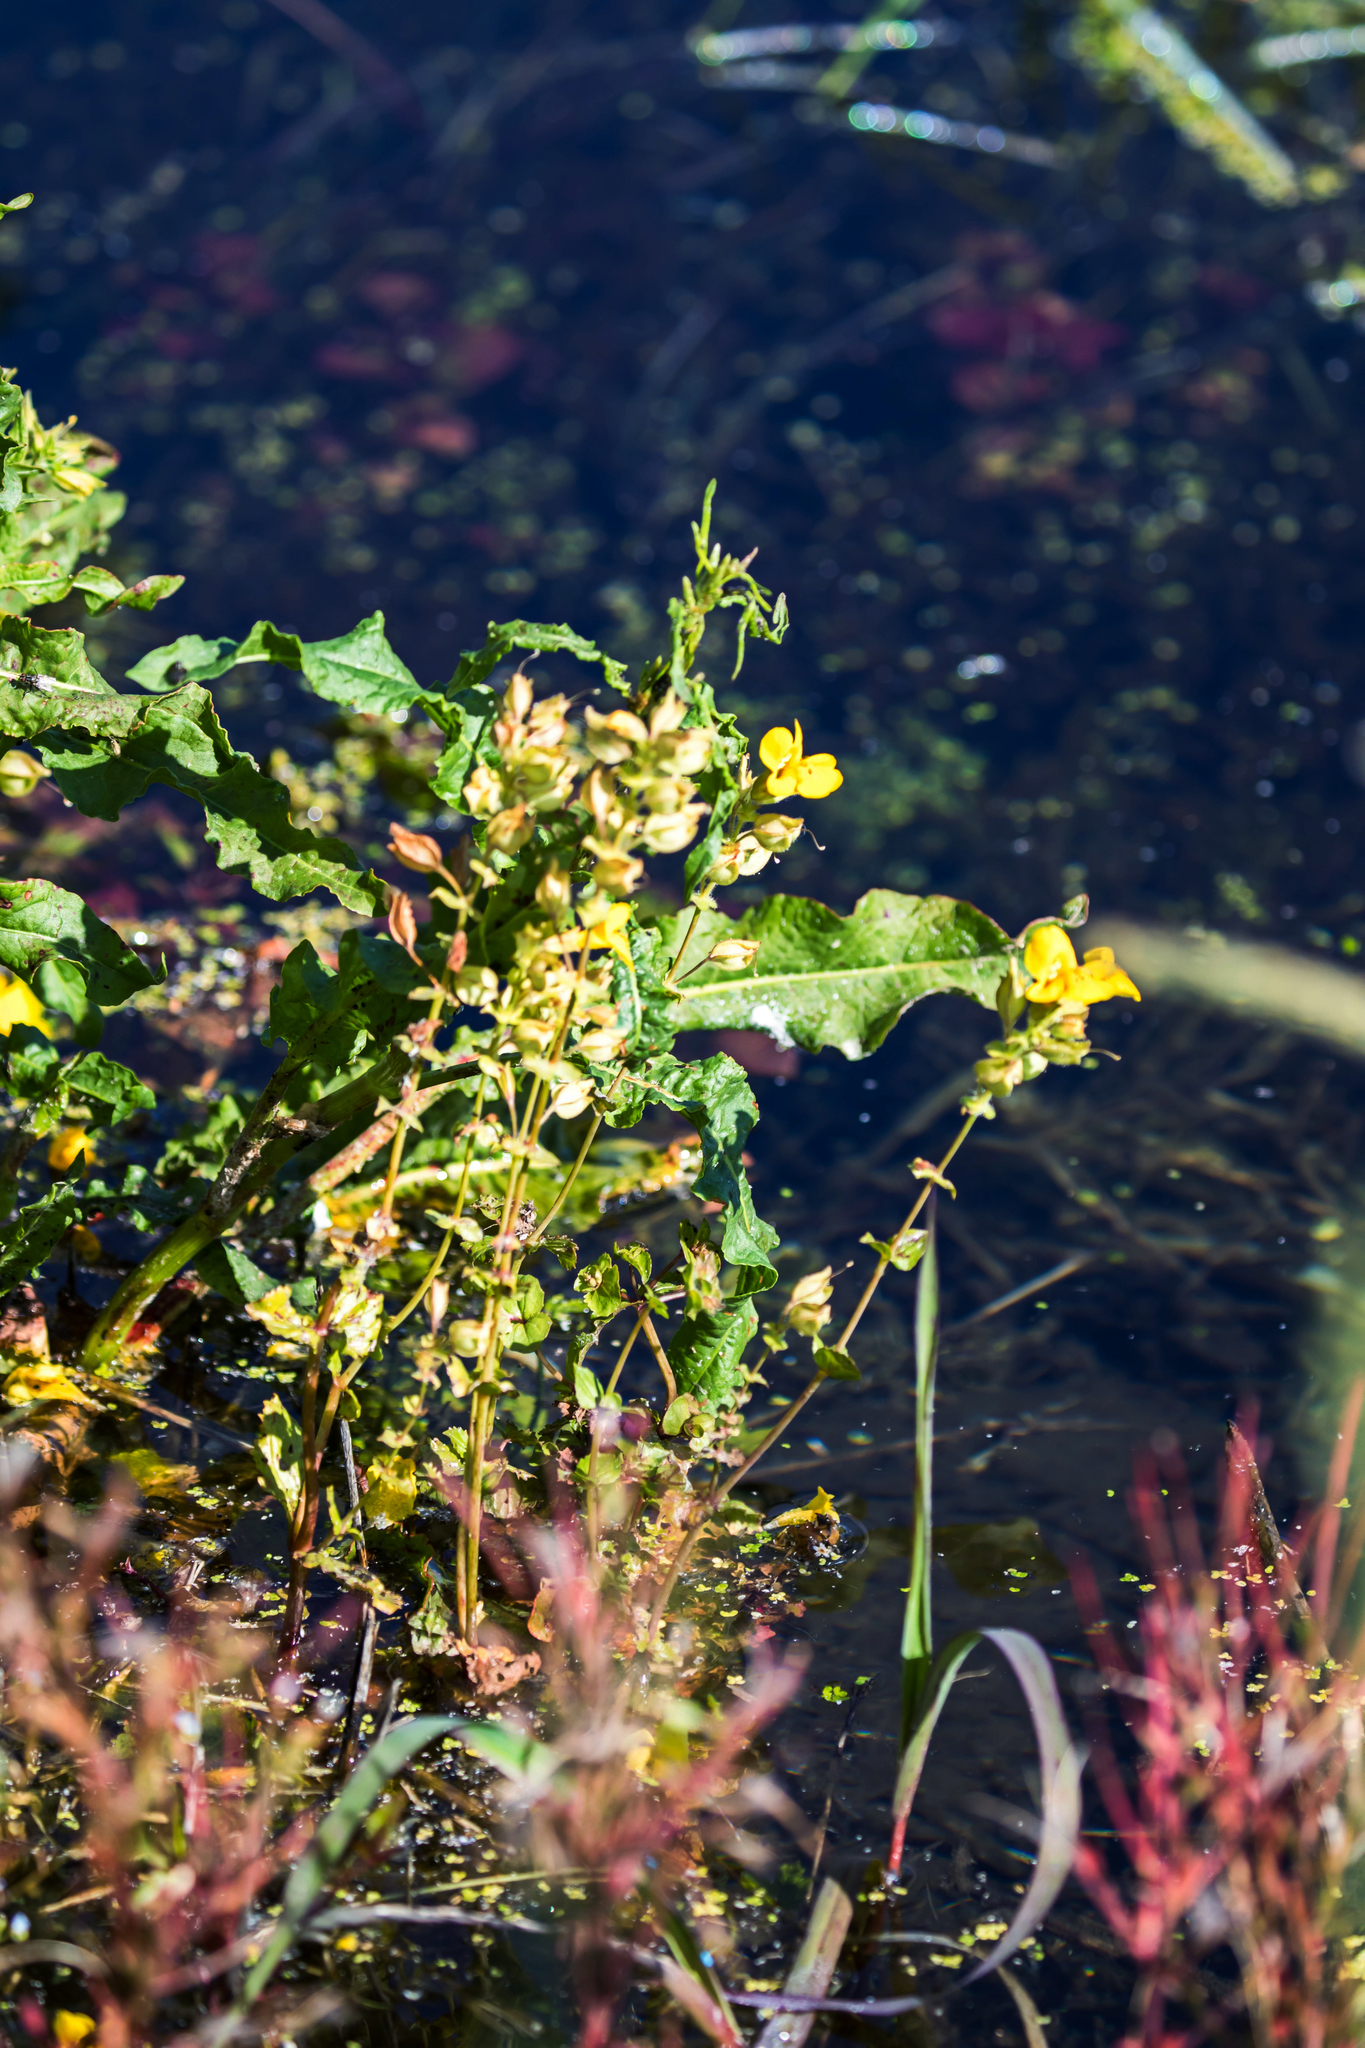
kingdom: Plantae
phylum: Tracheophyta
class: Magnoliopsida
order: Lamiales
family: Phrymaceae
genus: Erythranthe
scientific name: Erythranthe guttata
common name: Monkeyflower
